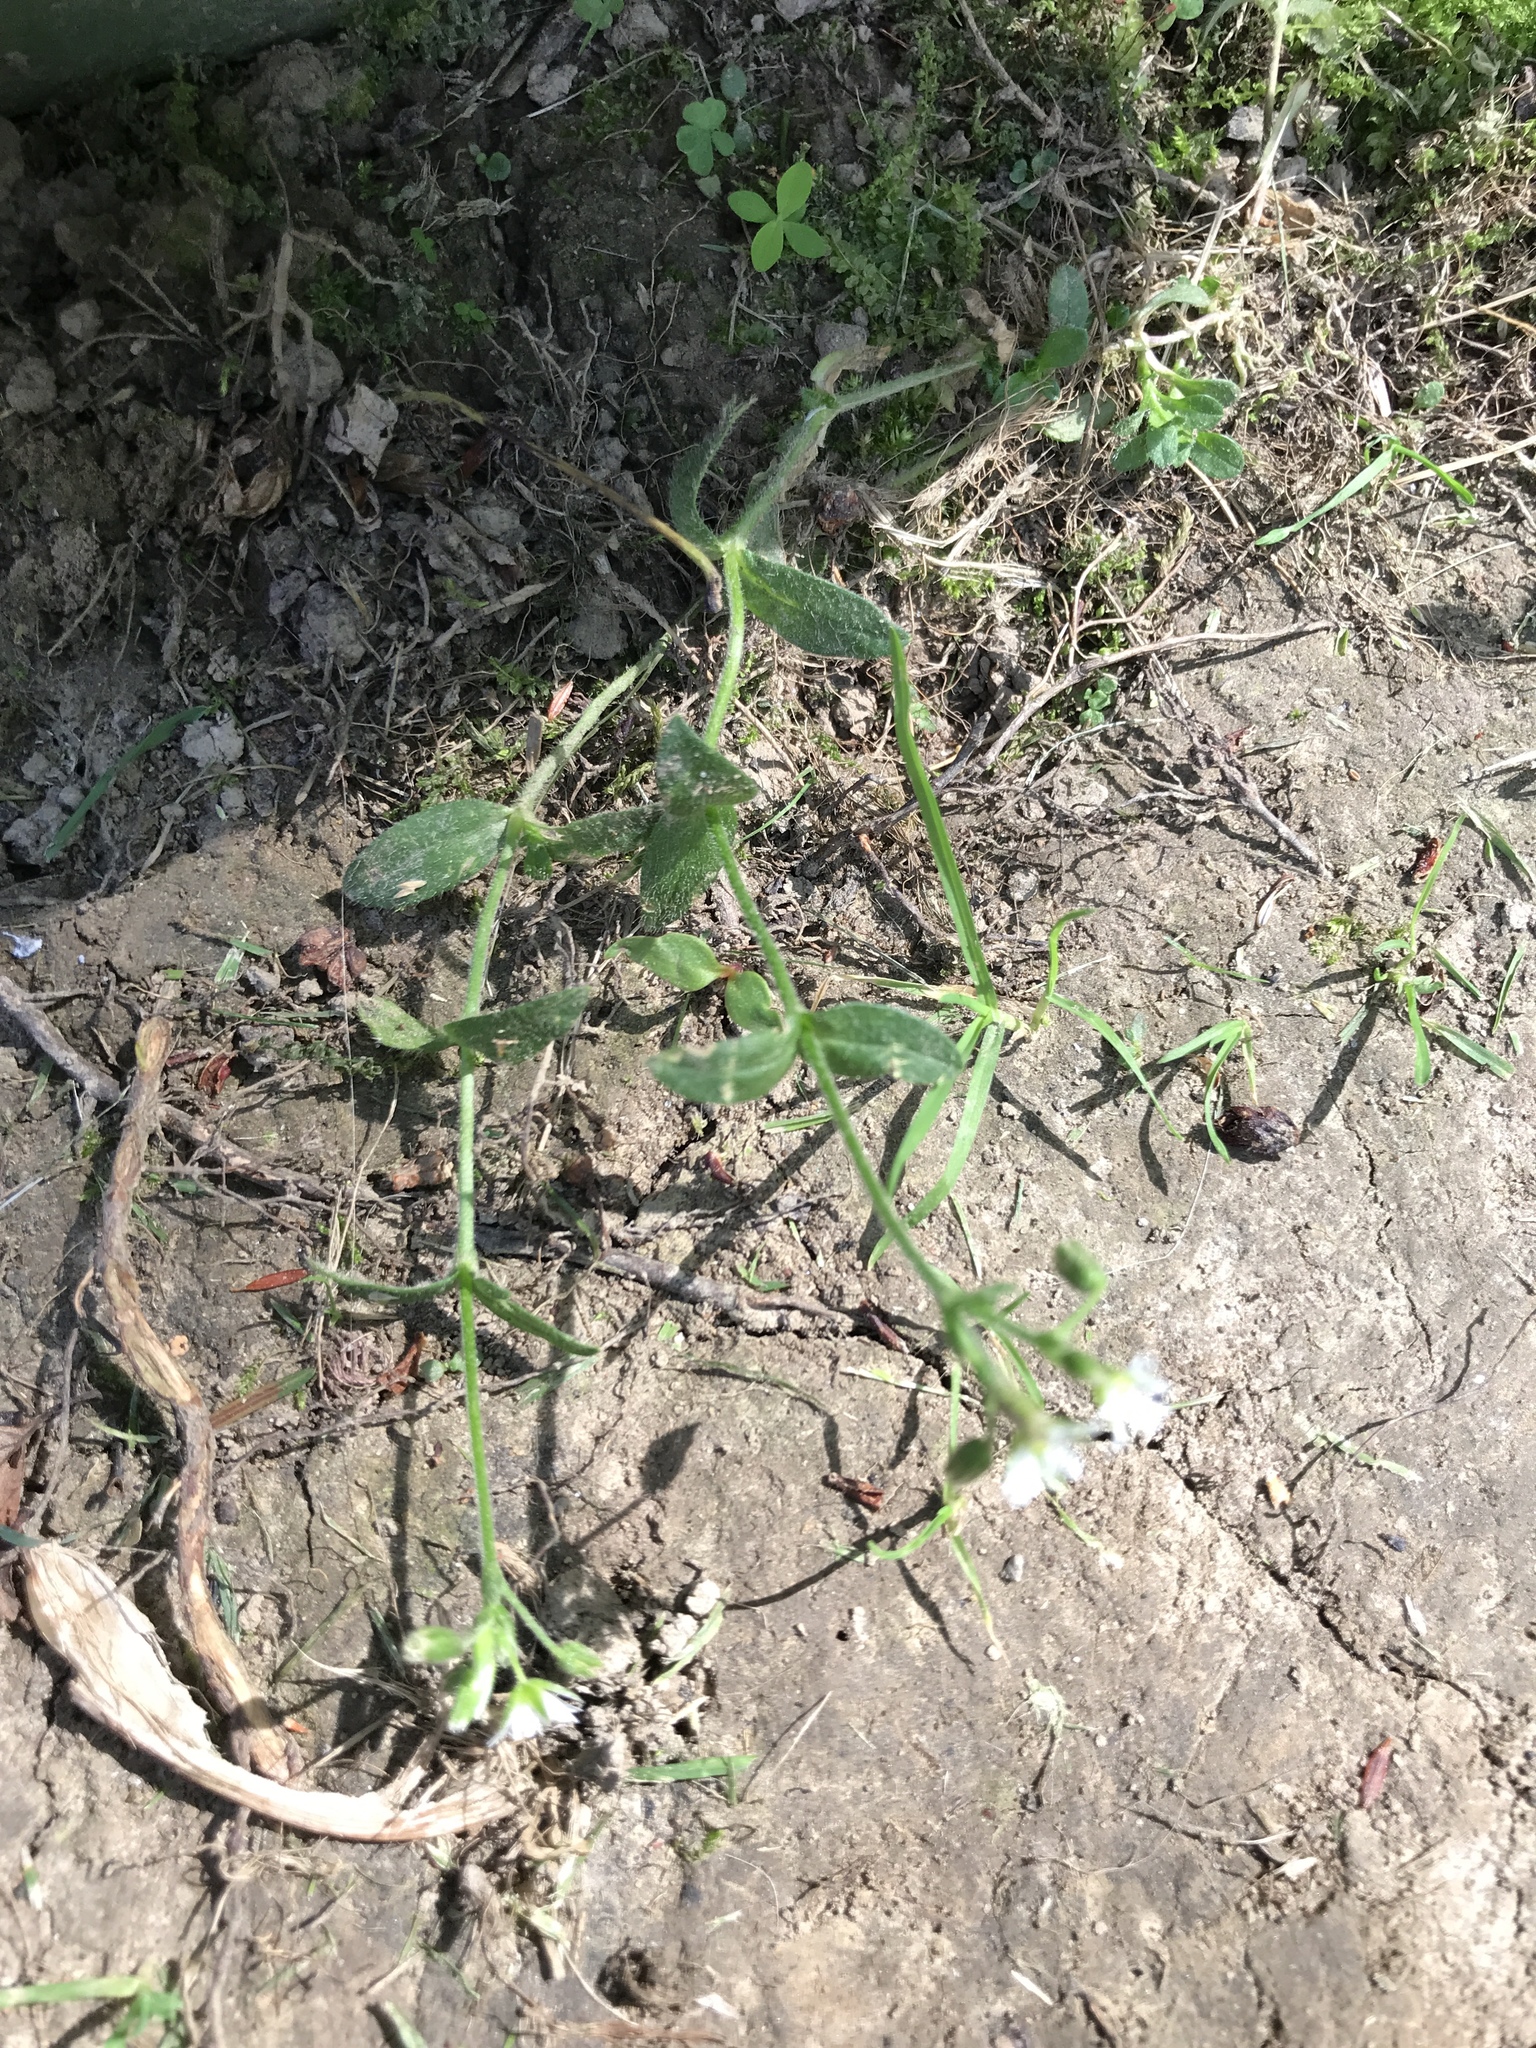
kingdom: Plantae
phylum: Tracheophyta
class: Magnoliopsida
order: Caryophyllales
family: Caryophyllaceae
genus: Cerastium
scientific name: Cerastium fontanum
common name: Common mouse-ear
